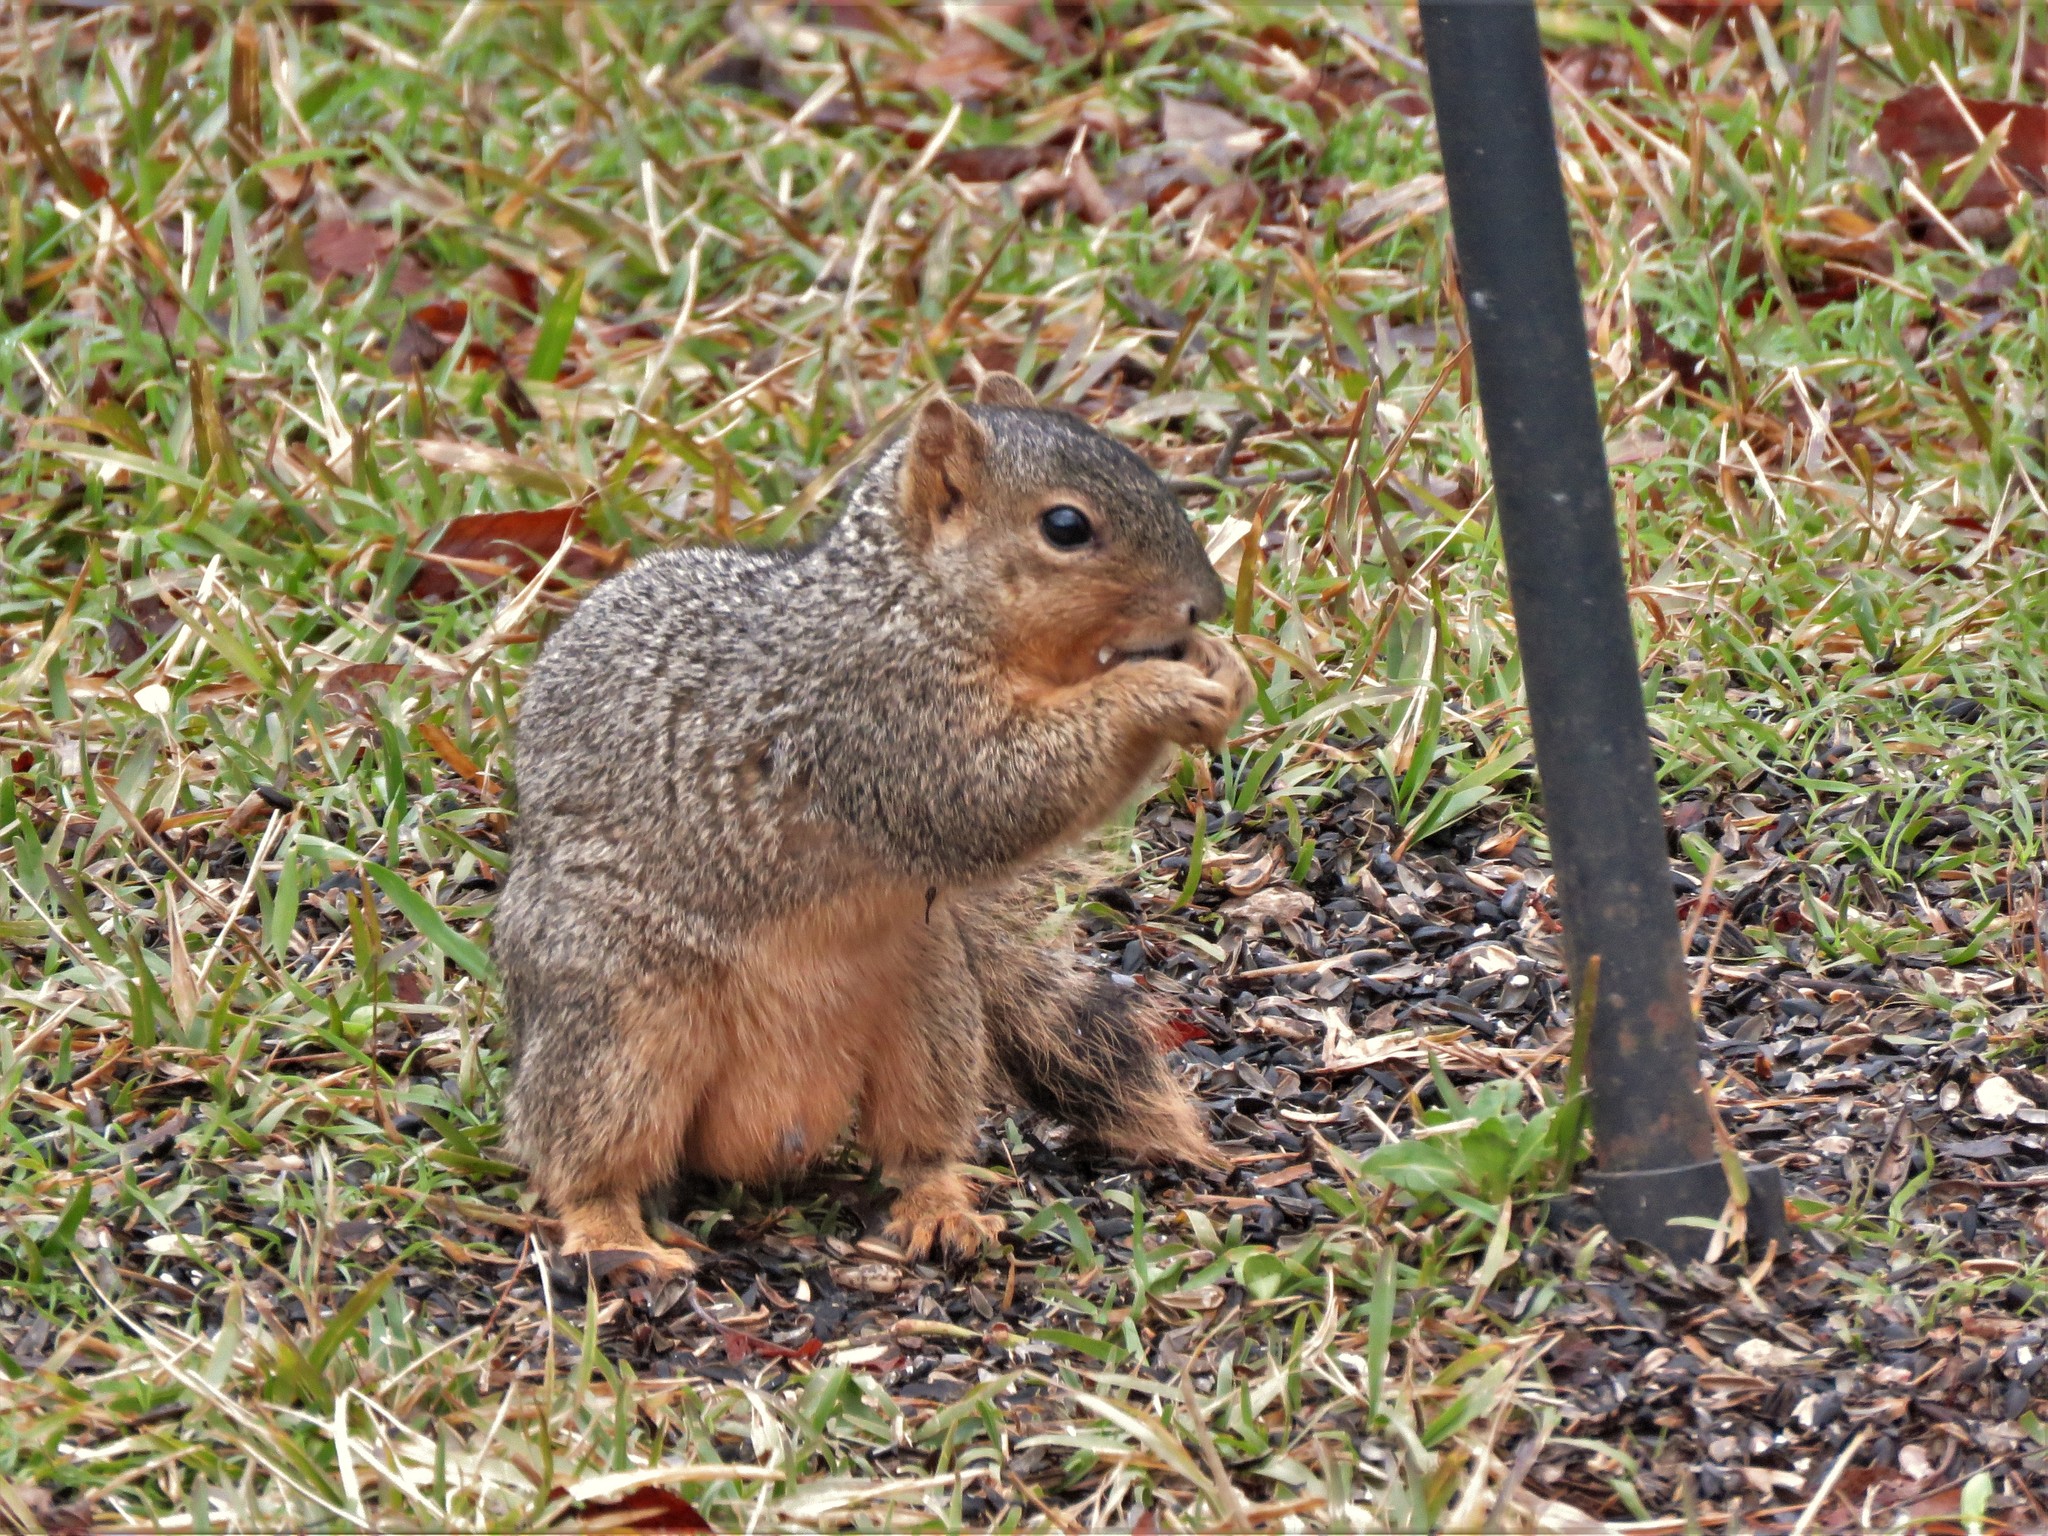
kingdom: Animalia
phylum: Chordata
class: Mammalia
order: Rodentia
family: Sciuridae
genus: Sciurus
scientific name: Sciurus niger
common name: Fox squirrel
